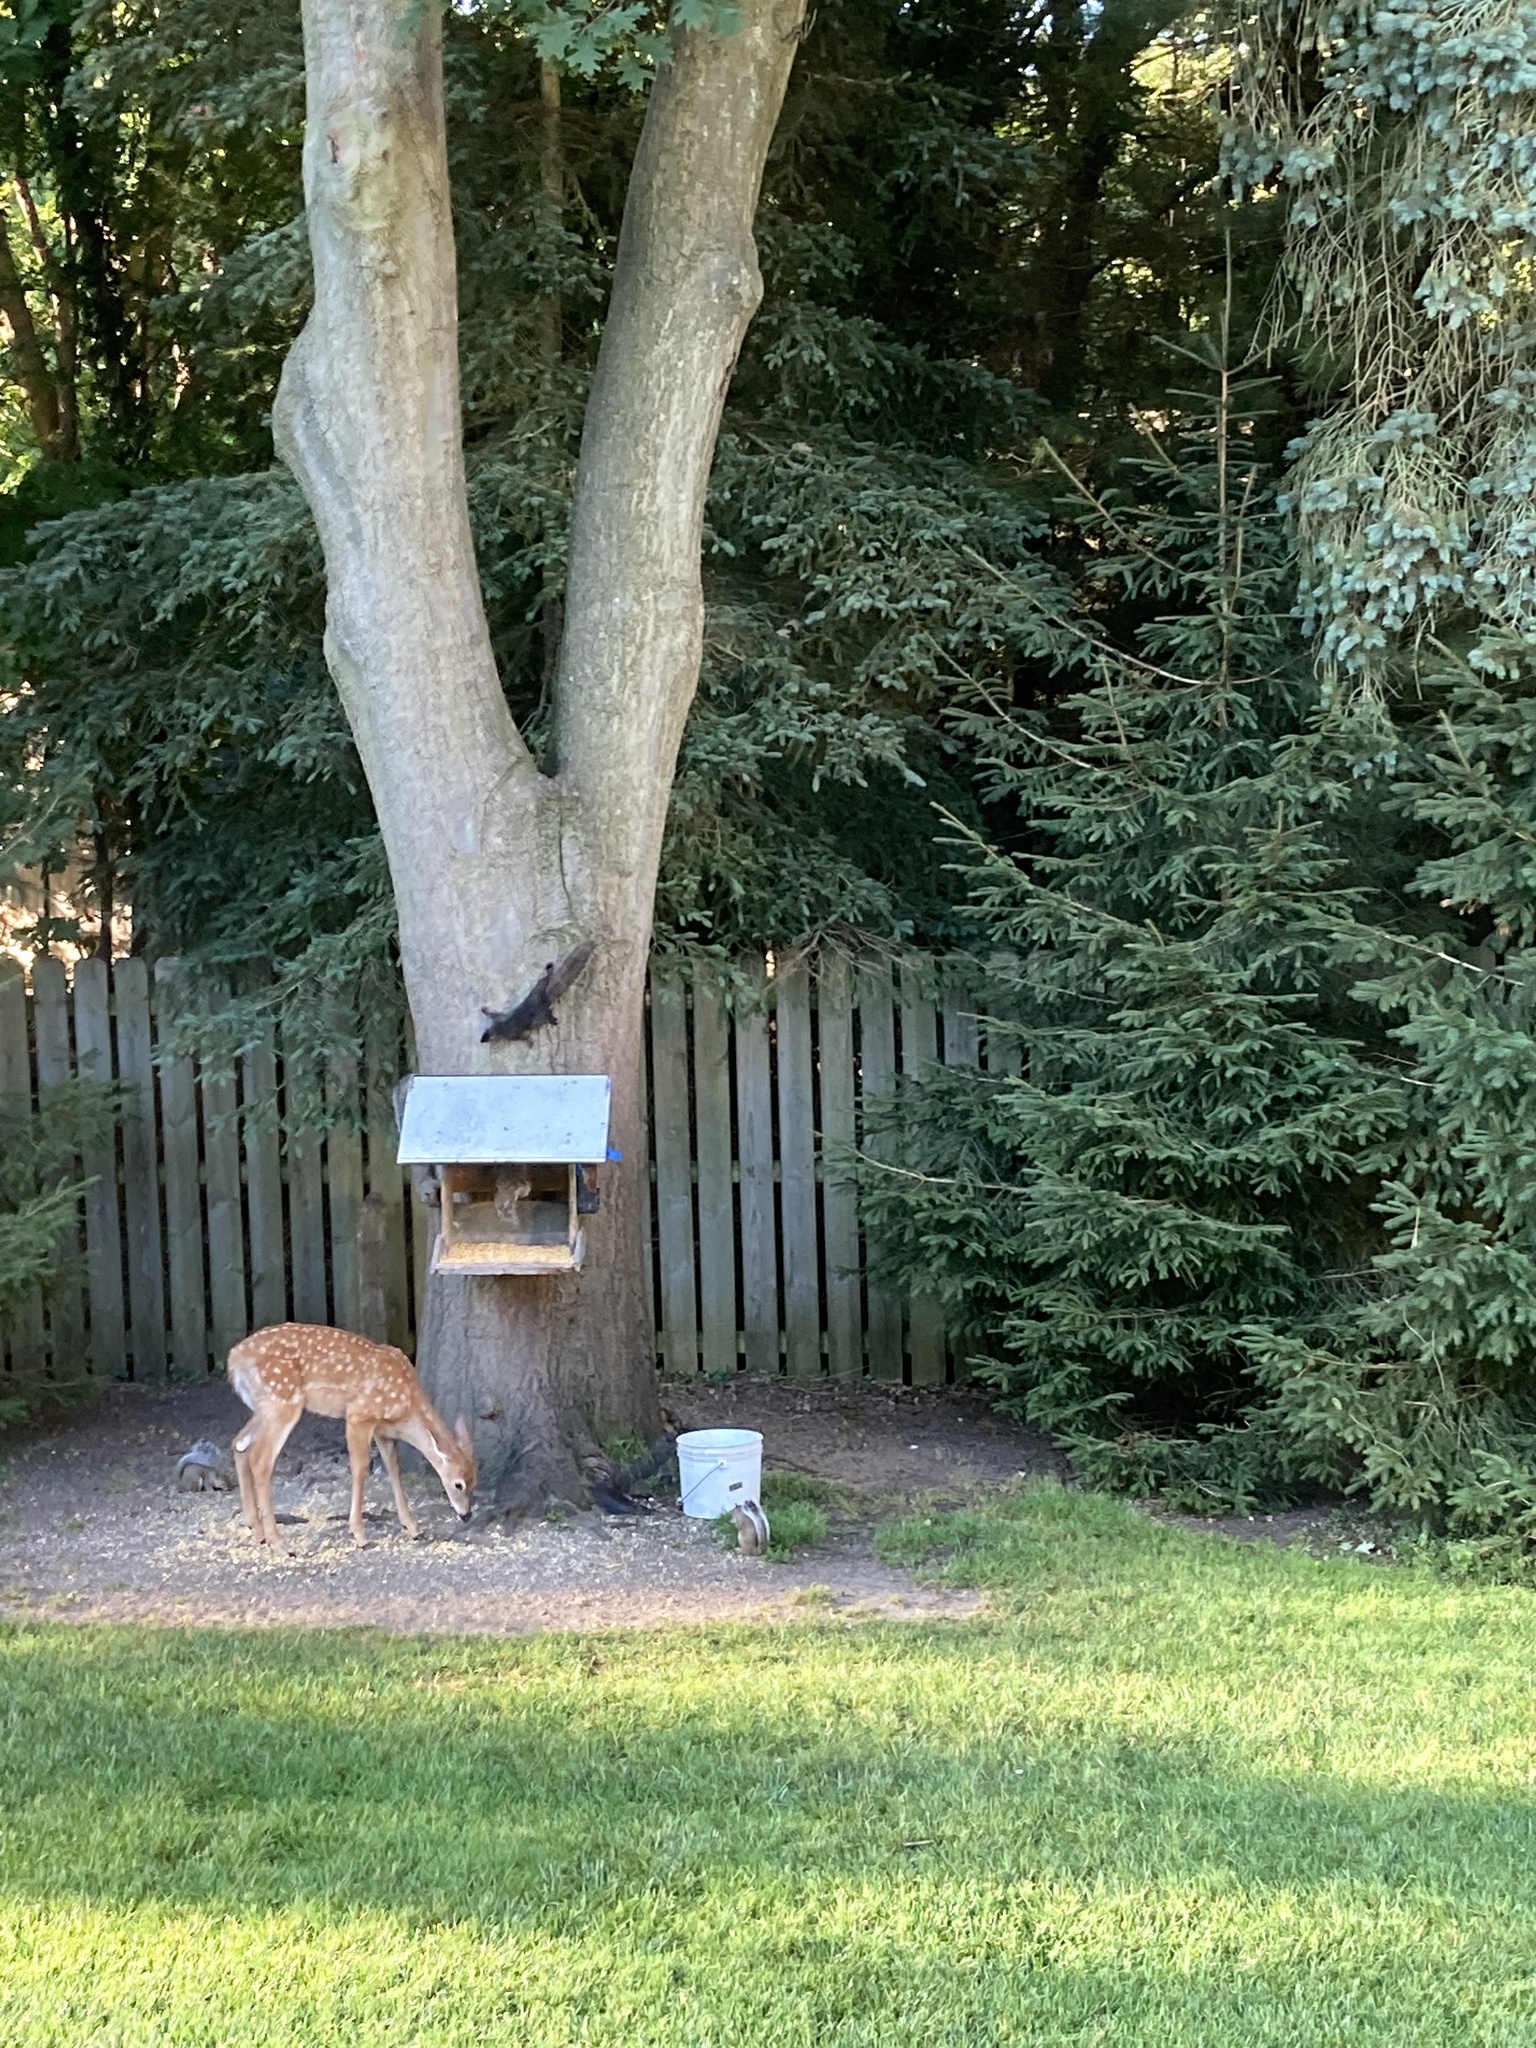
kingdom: Animalia
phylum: Chordata
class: Mammalia
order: Rodentia
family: Sciuridae
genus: Sciurus
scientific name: Sciurus carolinensis
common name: Eastern gray squirrel
